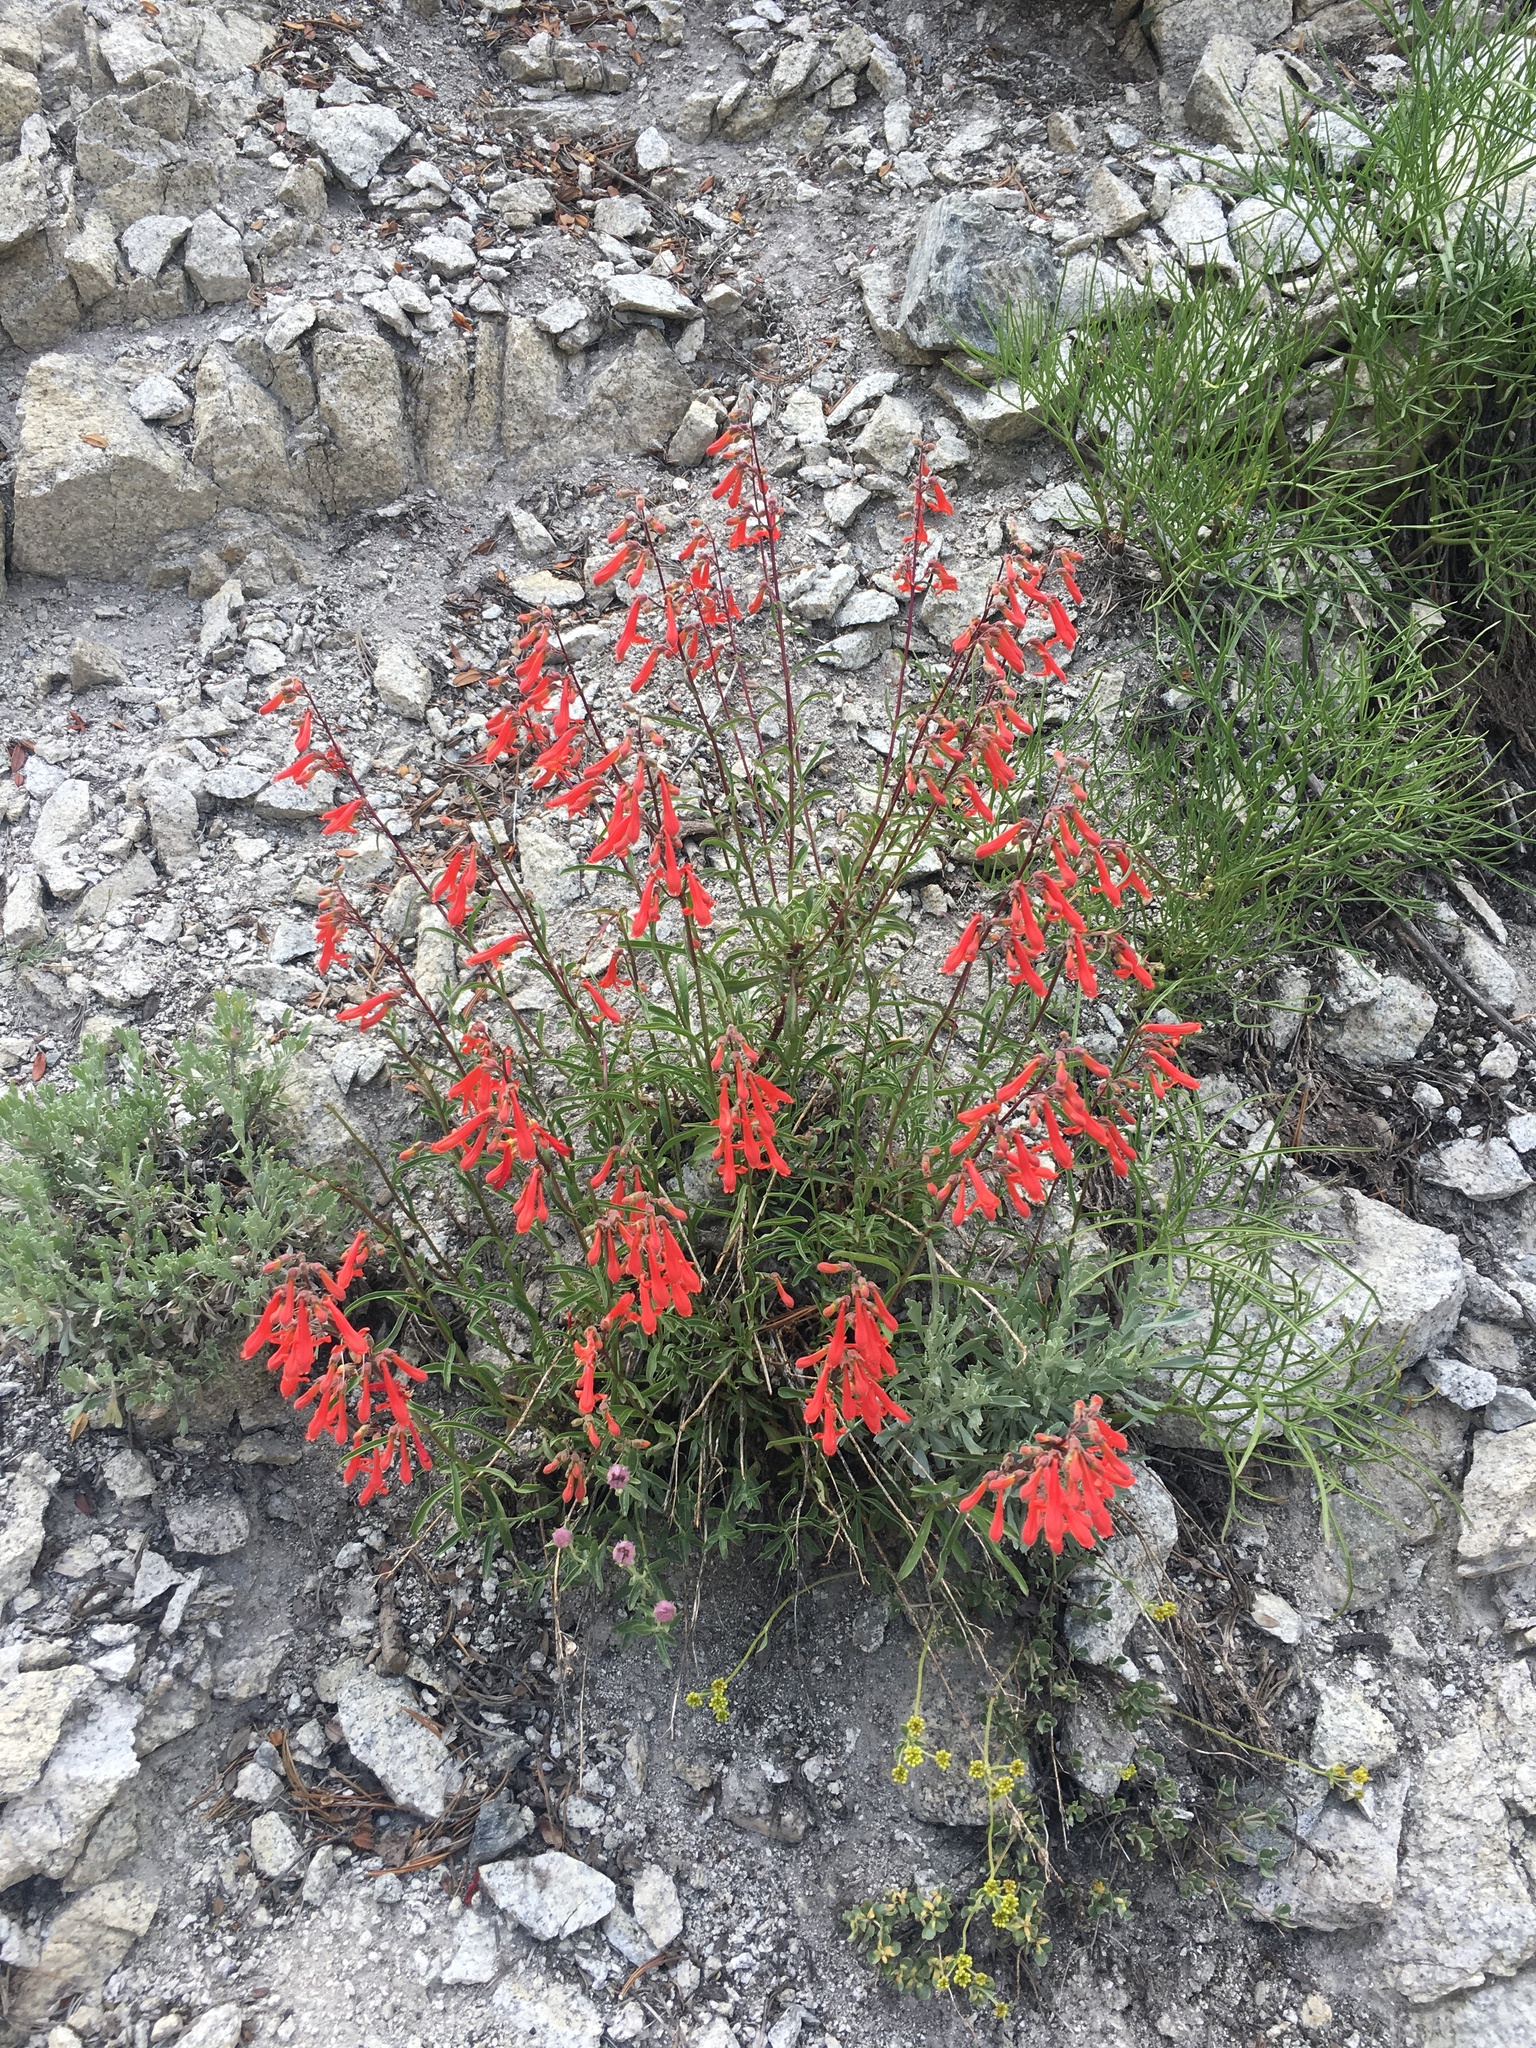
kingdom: Plantae
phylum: Tracheophyta
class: Magnoliopsida
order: Lamiales
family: Plantaginaceae
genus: Penstemon
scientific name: Penstemon rostriflorus
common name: Bridges's penstemon
